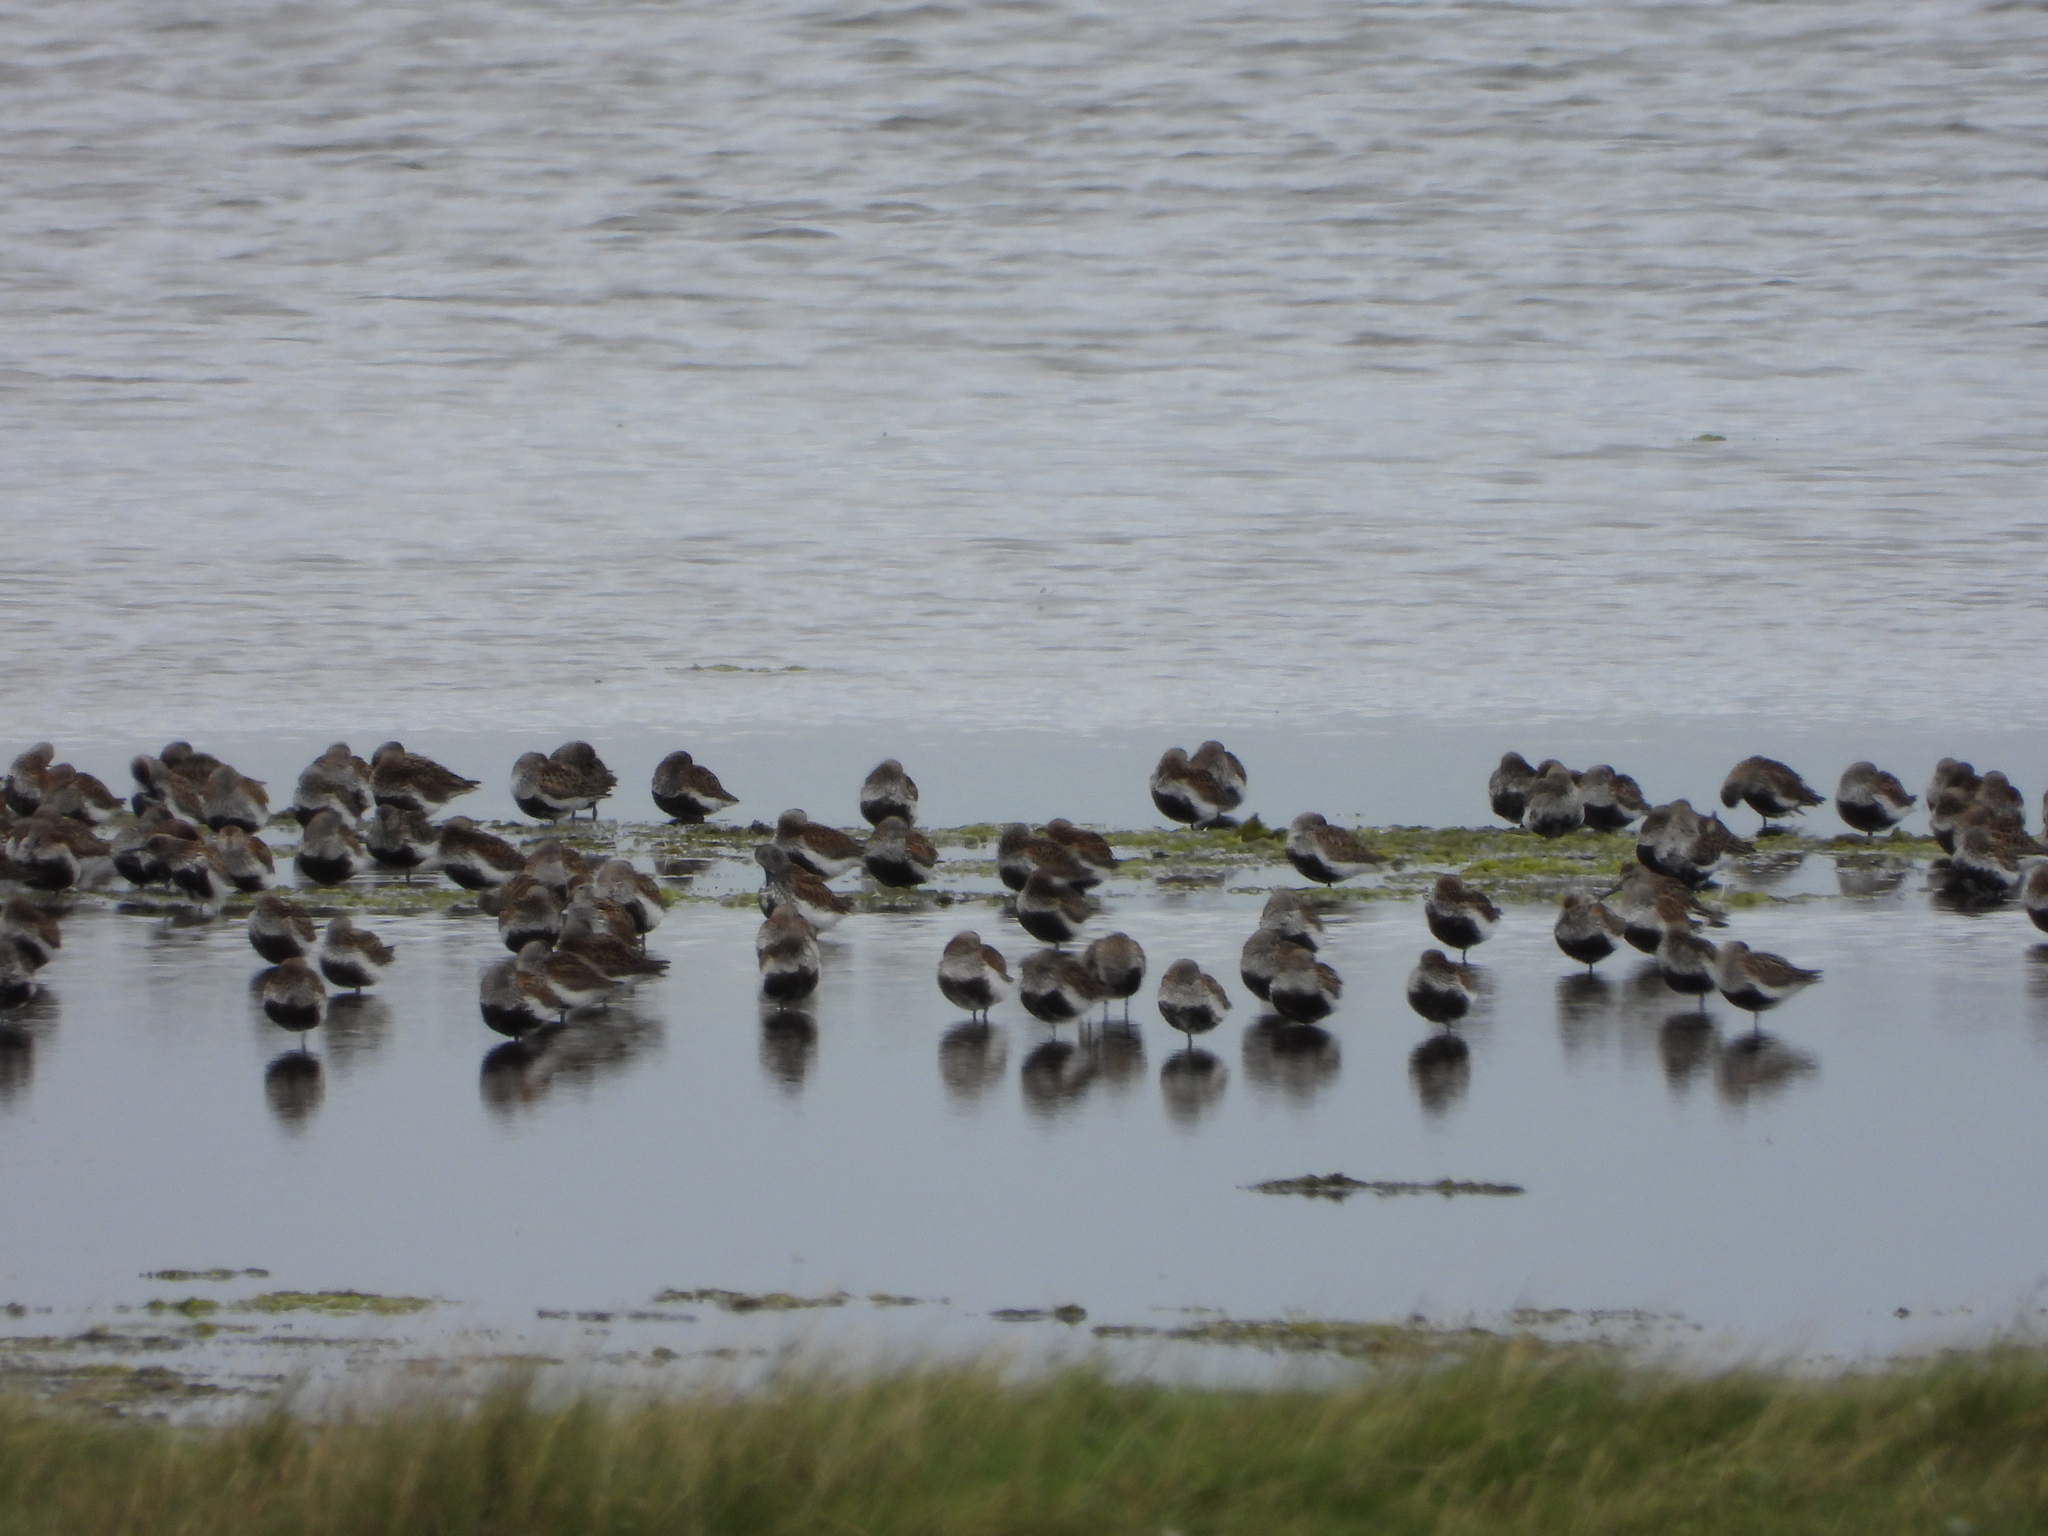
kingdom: Animalia
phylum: Chordata
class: Aves
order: Charadriiformes
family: Scolopacidae
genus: Calidris
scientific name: Calidris alpina
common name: Dunlin
